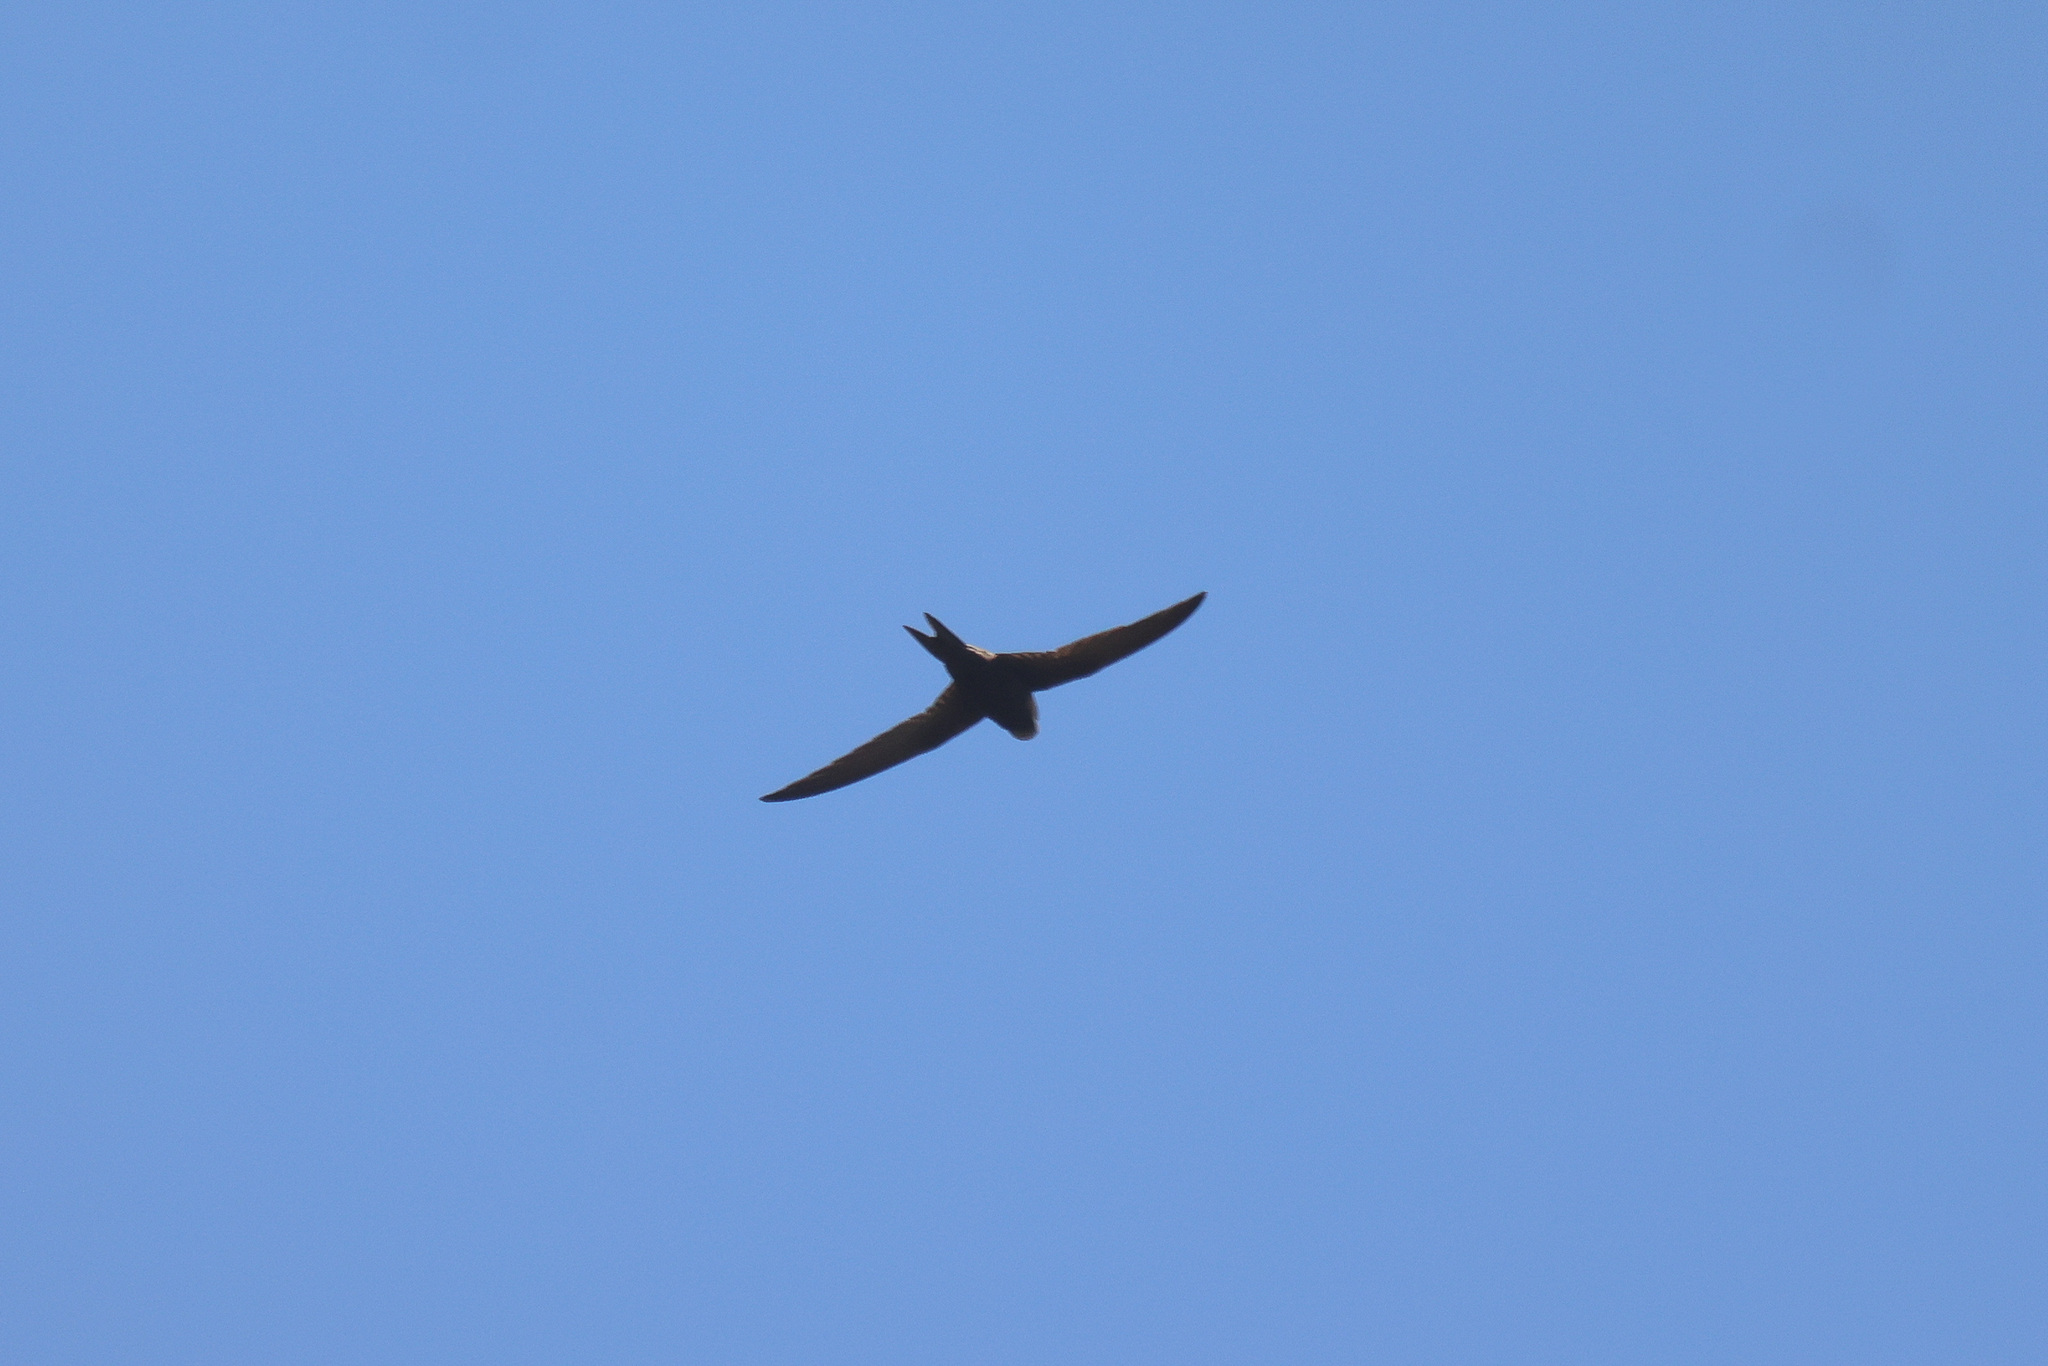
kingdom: Animalia
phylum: Chordata
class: Aves
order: Apodiformes
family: Apodidae
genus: Apus
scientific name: Apus apus
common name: Common swift
